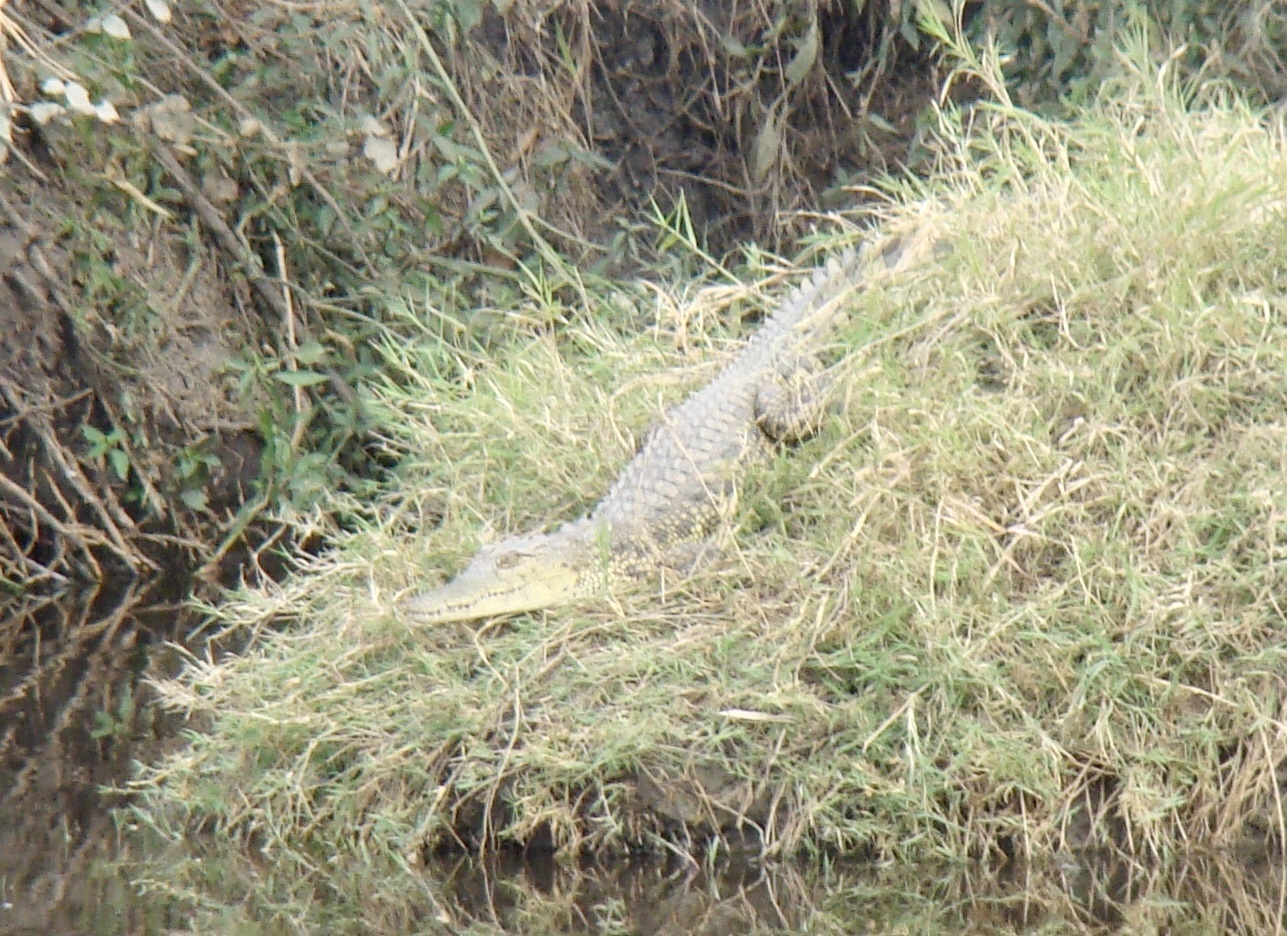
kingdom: Animalia
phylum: Chordata
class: Crocodylia
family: Crocodylidae
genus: Crocodylus
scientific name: Crocodylus niloticus
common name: Nile crocodile
